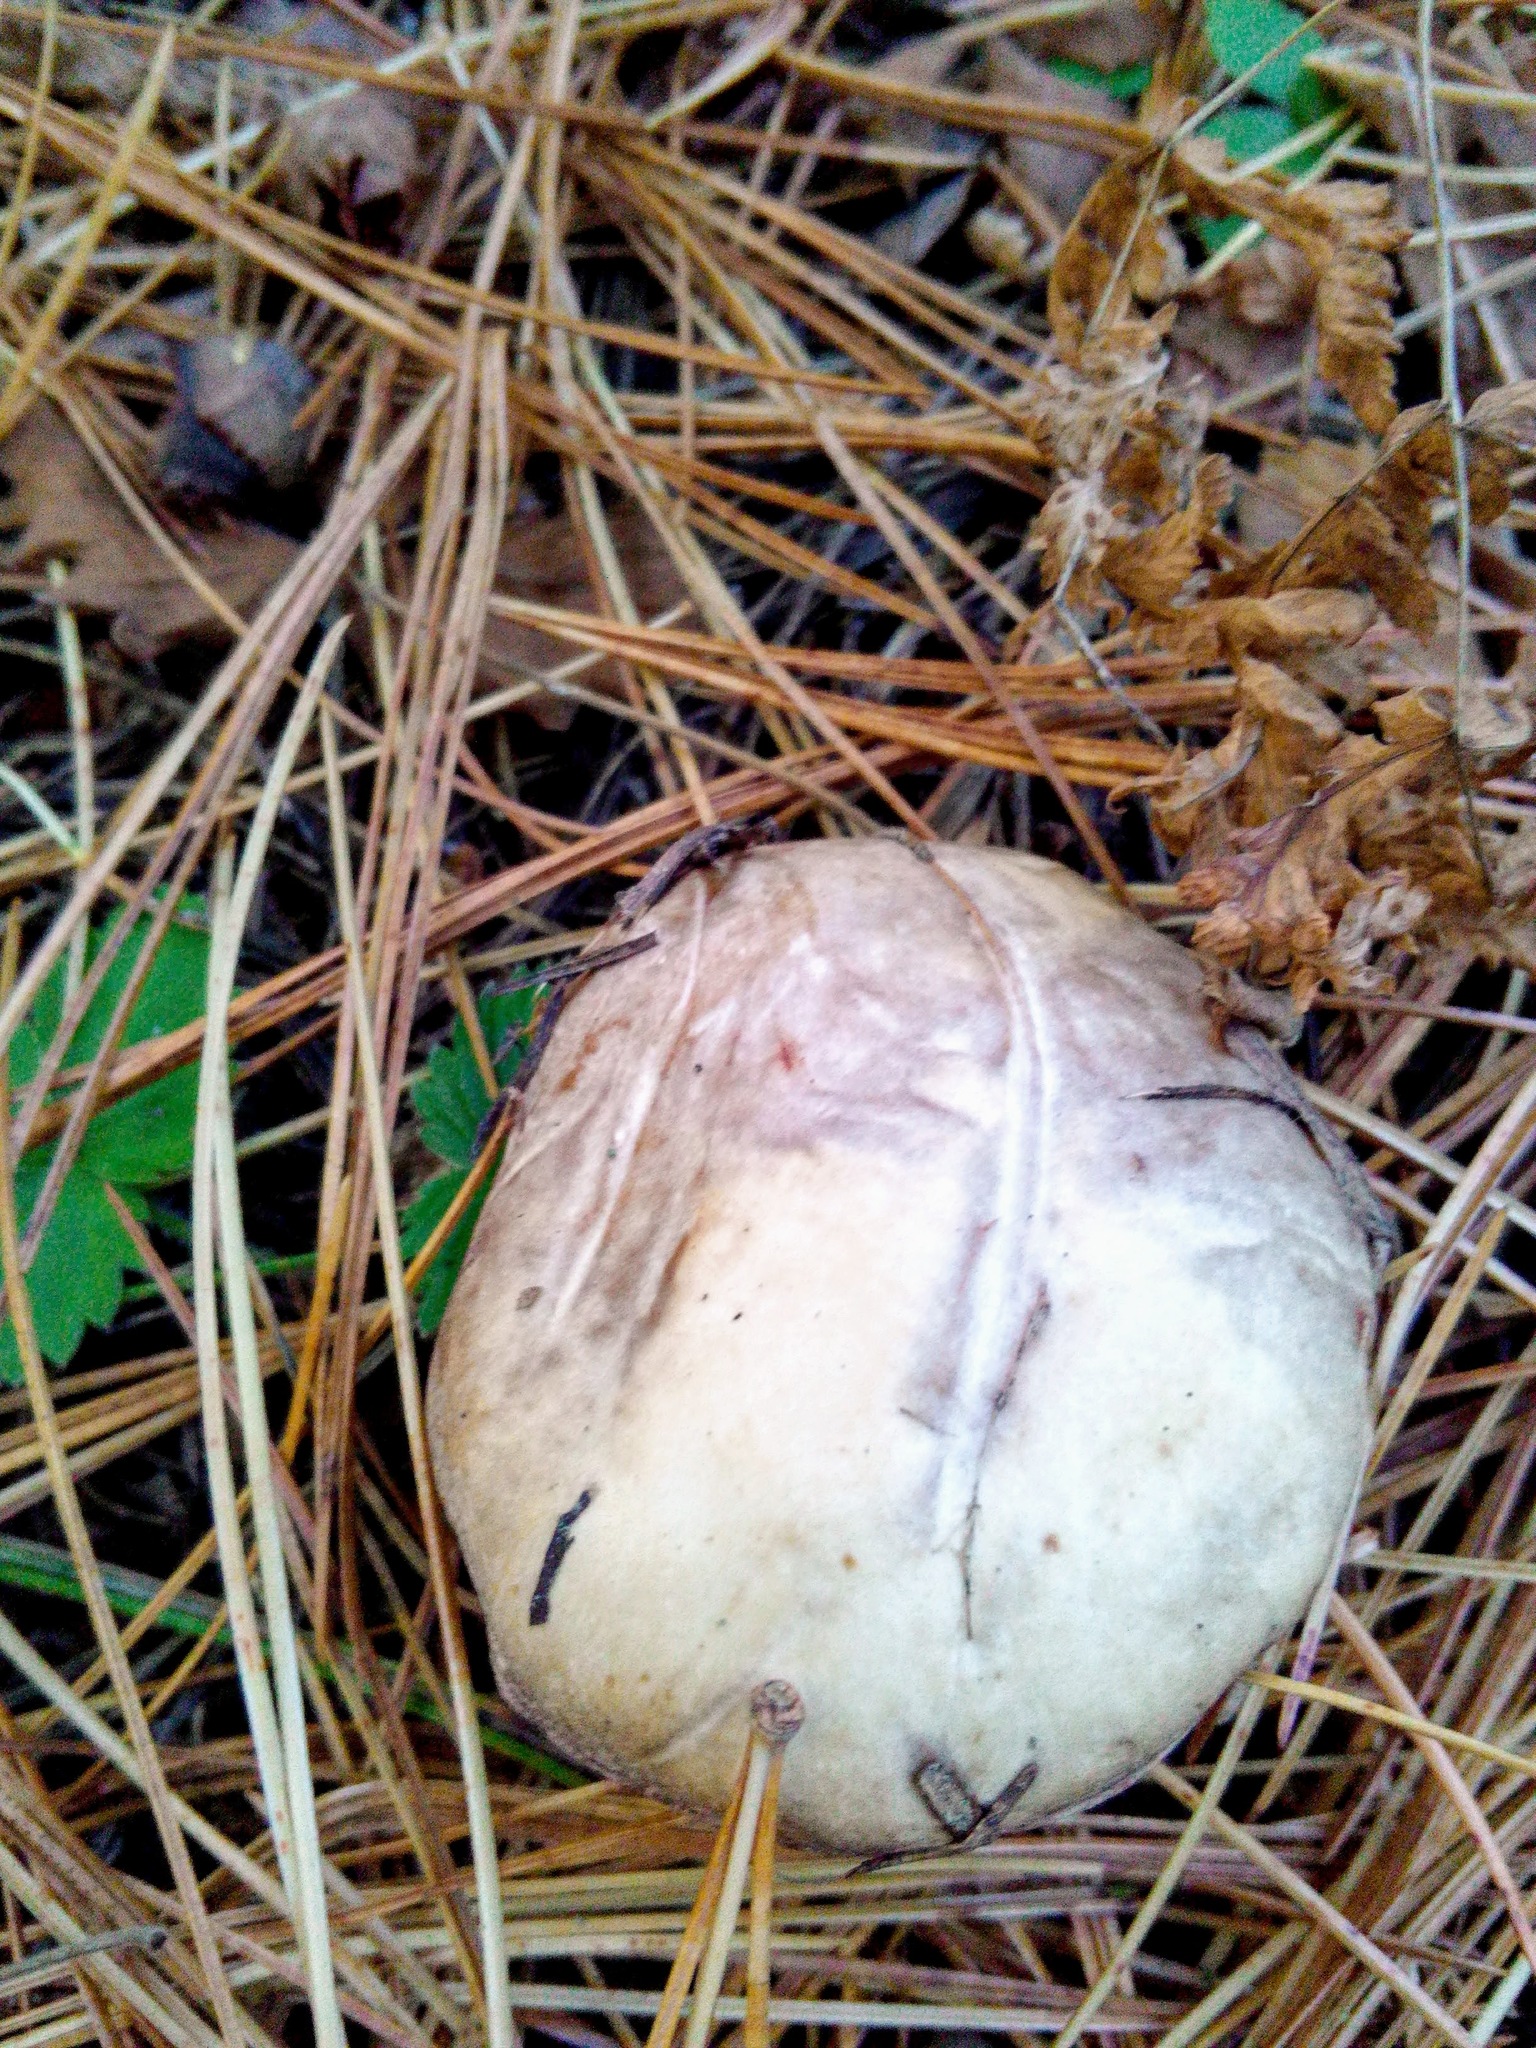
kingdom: Fungi
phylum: Basidiomycota
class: Agaricomycetes
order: Boletales
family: Suillaceae
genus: Suillus
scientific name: Suillus placidus
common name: Slippery white bolete
